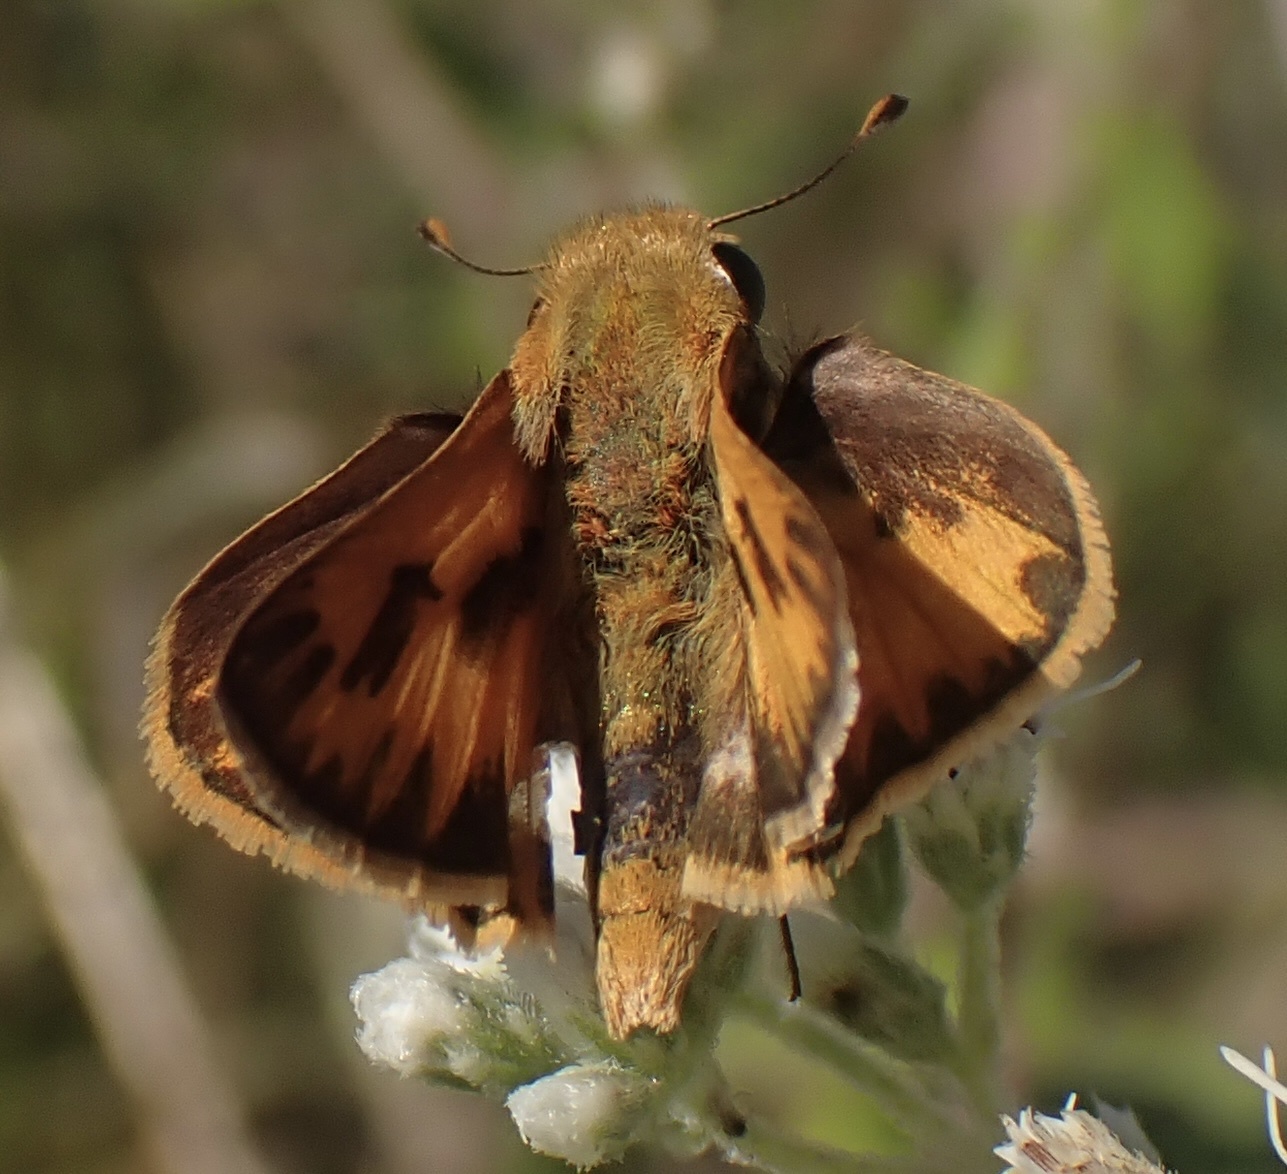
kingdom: Animalia
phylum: Arthropoda
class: Insecta
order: Lepidoptera
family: Hesperiidae
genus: Hylephila
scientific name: Hylephila phyleus
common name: Fiery skipper
